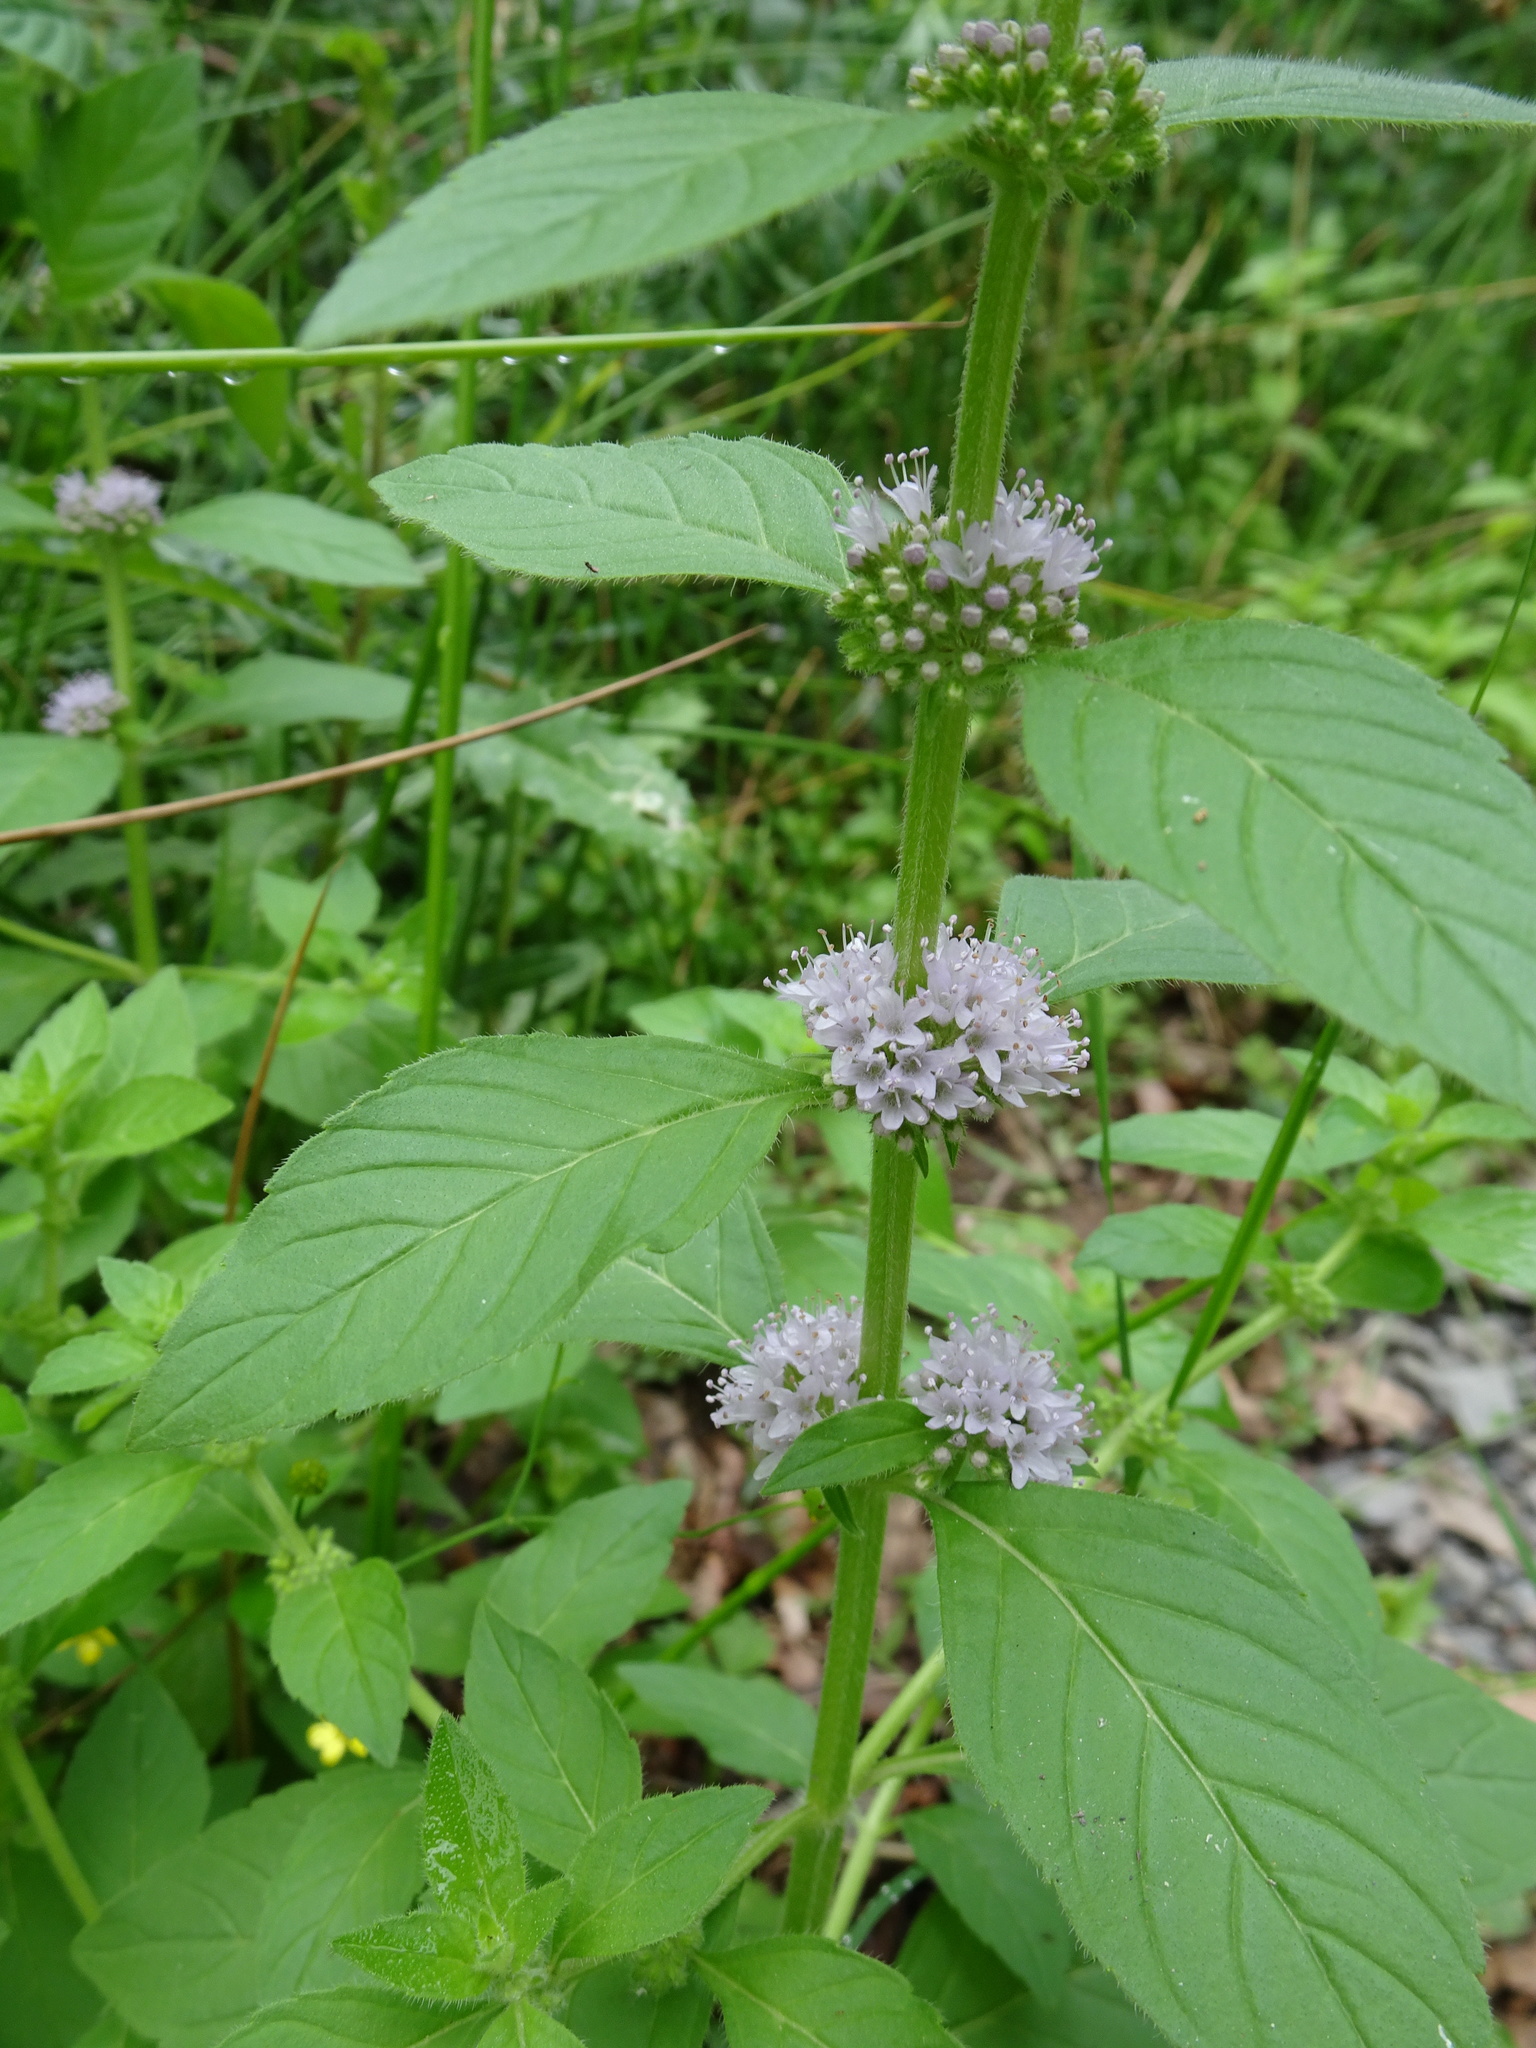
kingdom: Plantae
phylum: Tracheophyta
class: Magnoliopsida
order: Lamiales
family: Lamiaceae
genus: Mentha
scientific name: Mentha verticillata
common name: Mint
